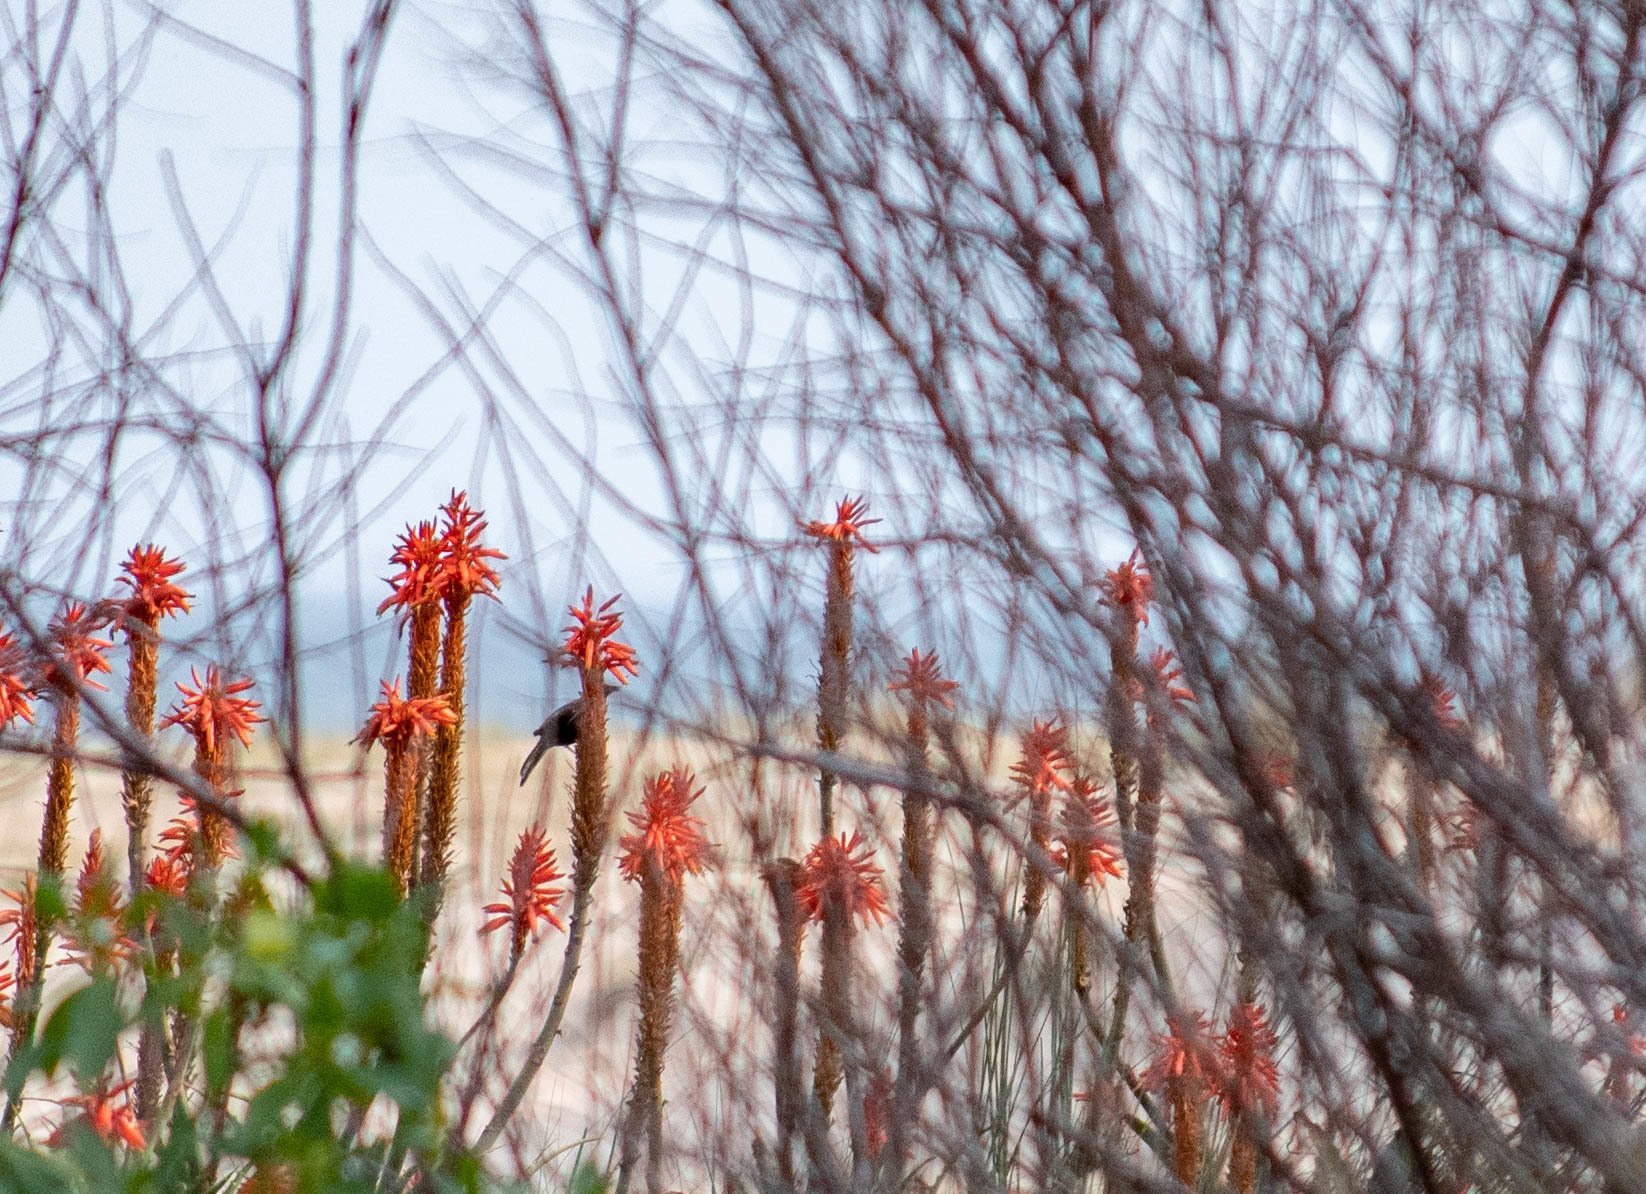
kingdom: Animalia
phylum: Chordata
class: Aves
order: Passeriformes
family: Icteridae
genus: Icterus
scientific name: Icterus cayanensis
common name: Epaulet oriole
